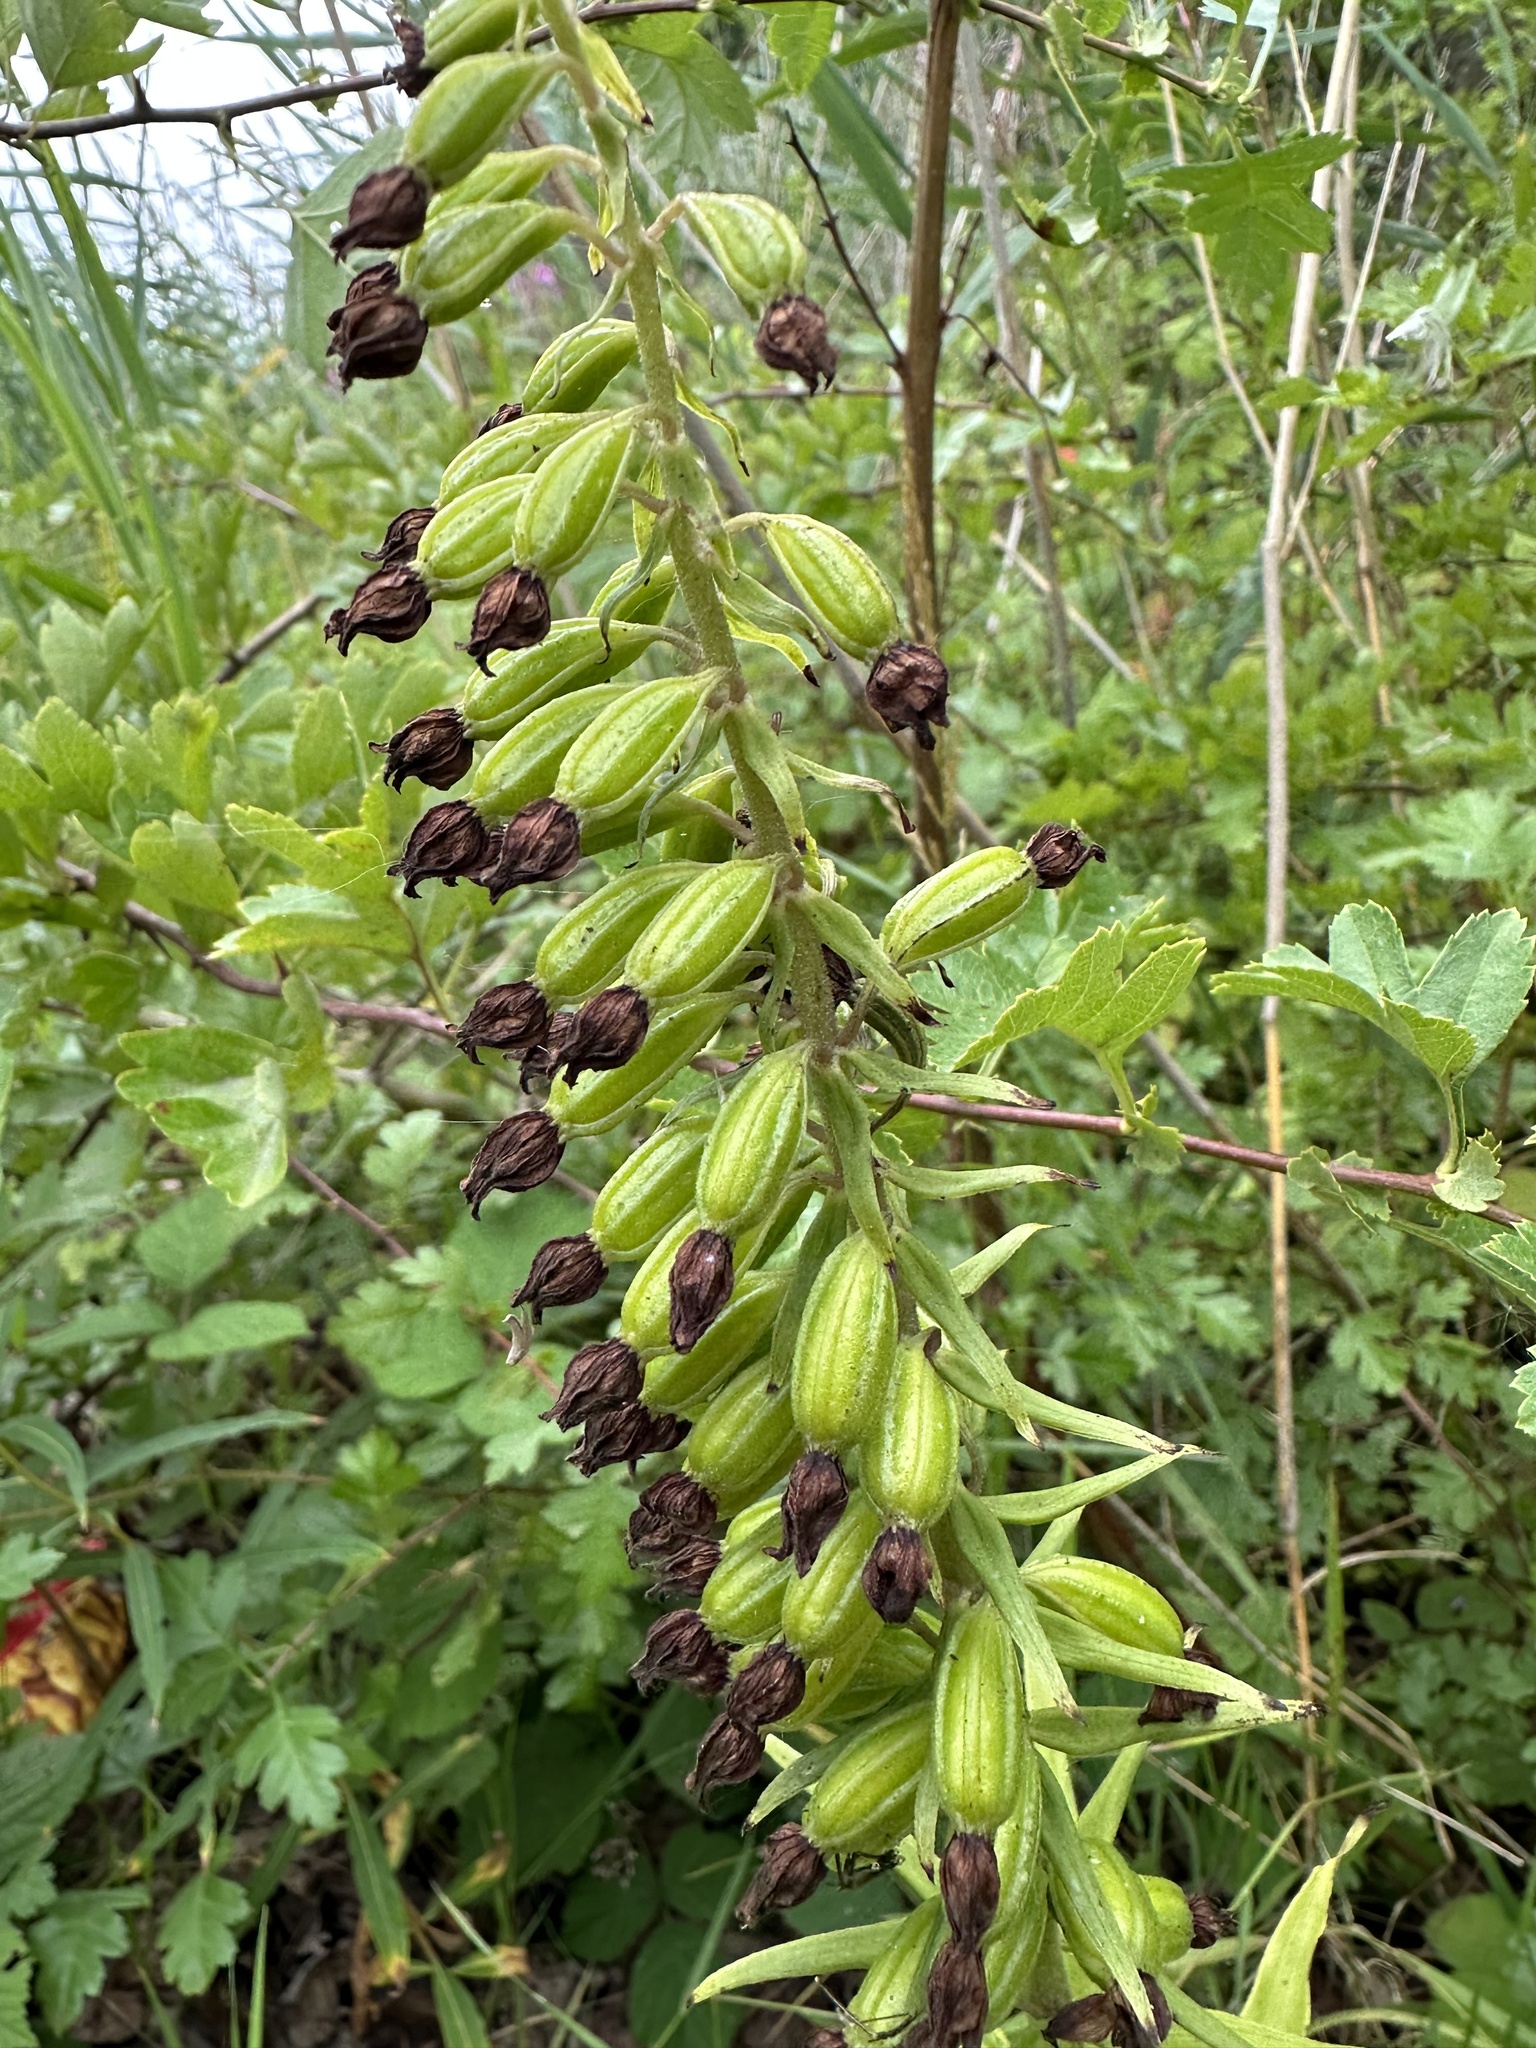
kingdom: Plantae
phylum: Tracheophyta
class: Liliopsida
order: Asparagales
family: Orchidaceae
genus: Epipactis
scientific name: Epipactis helleborine
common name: Broad-leaved helleborine
